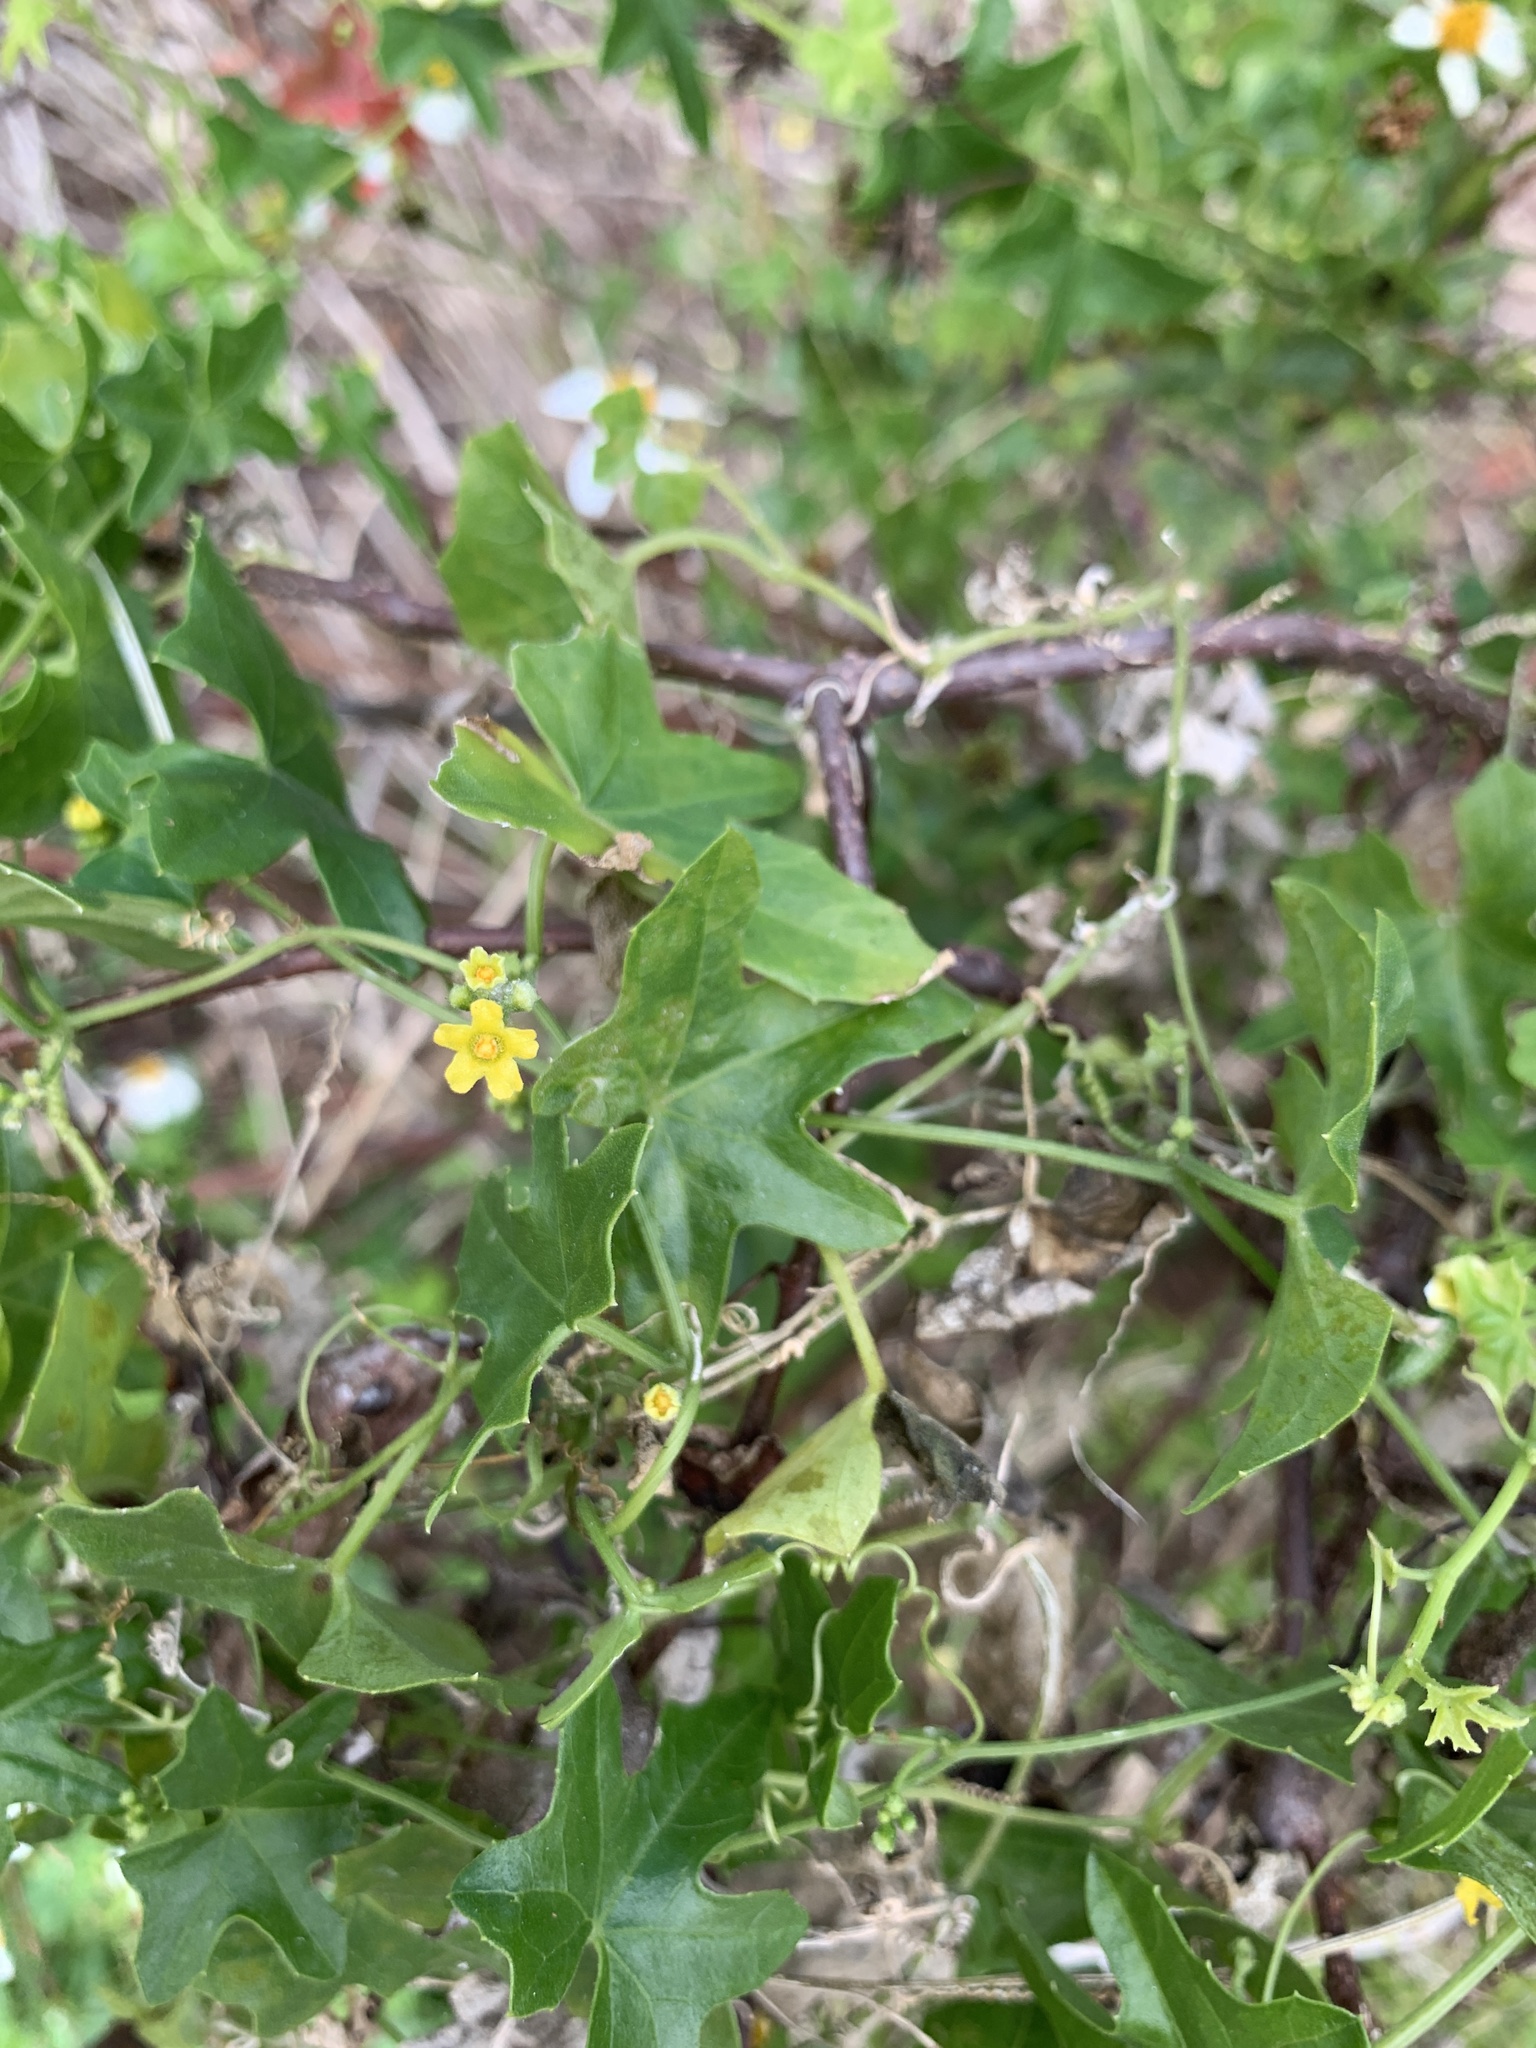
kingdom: Plantae
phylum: Tracheophyta
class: Magnoliopsida
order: Cucurbitales
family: Cucurbitaceae
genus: Melothria
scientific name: Melothria pendula
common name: Creeping-cucumber
